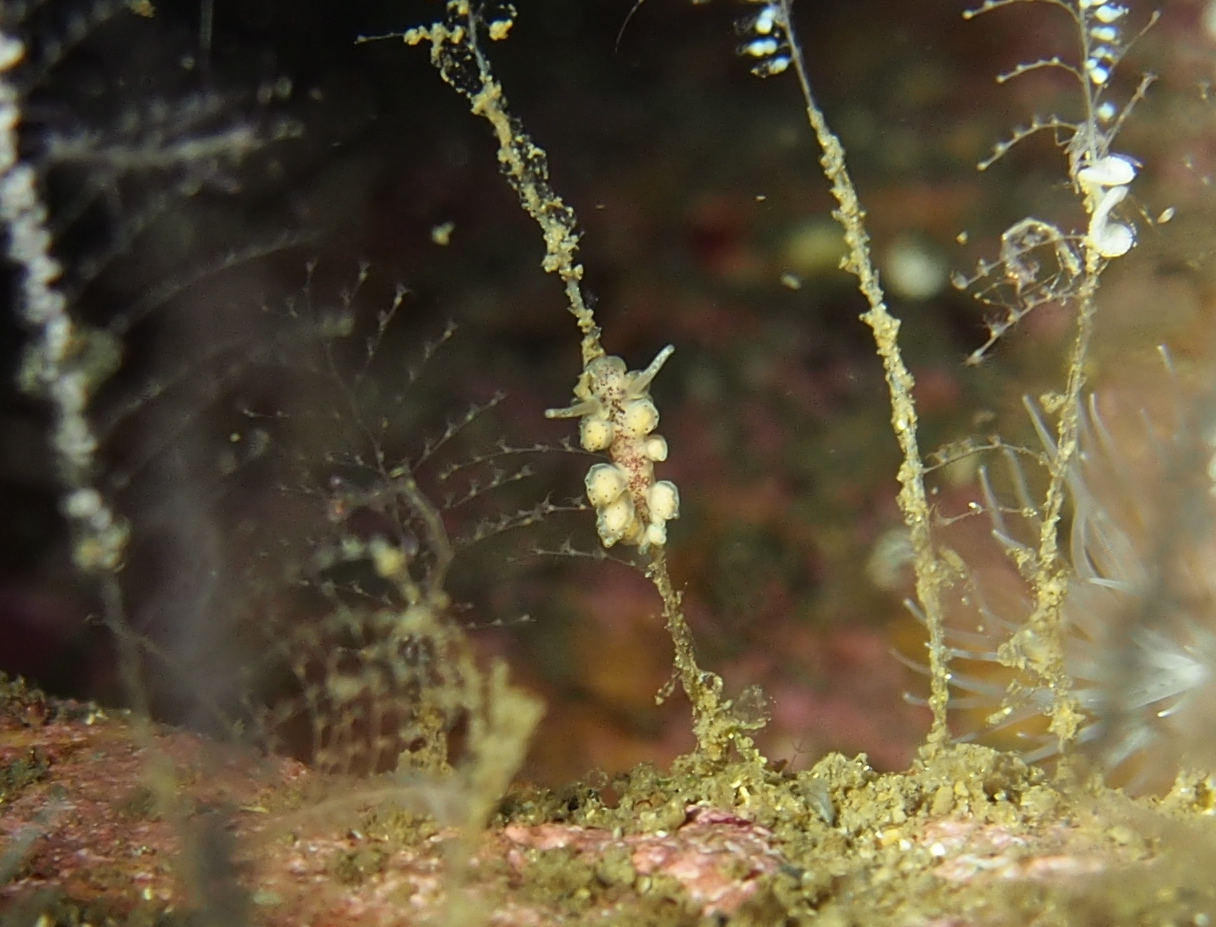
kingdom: Animalia
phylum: Mollusca
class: Gastropoda
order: Nudibranchia
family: Dotidae
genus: Doto
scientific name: Doto dunnei
